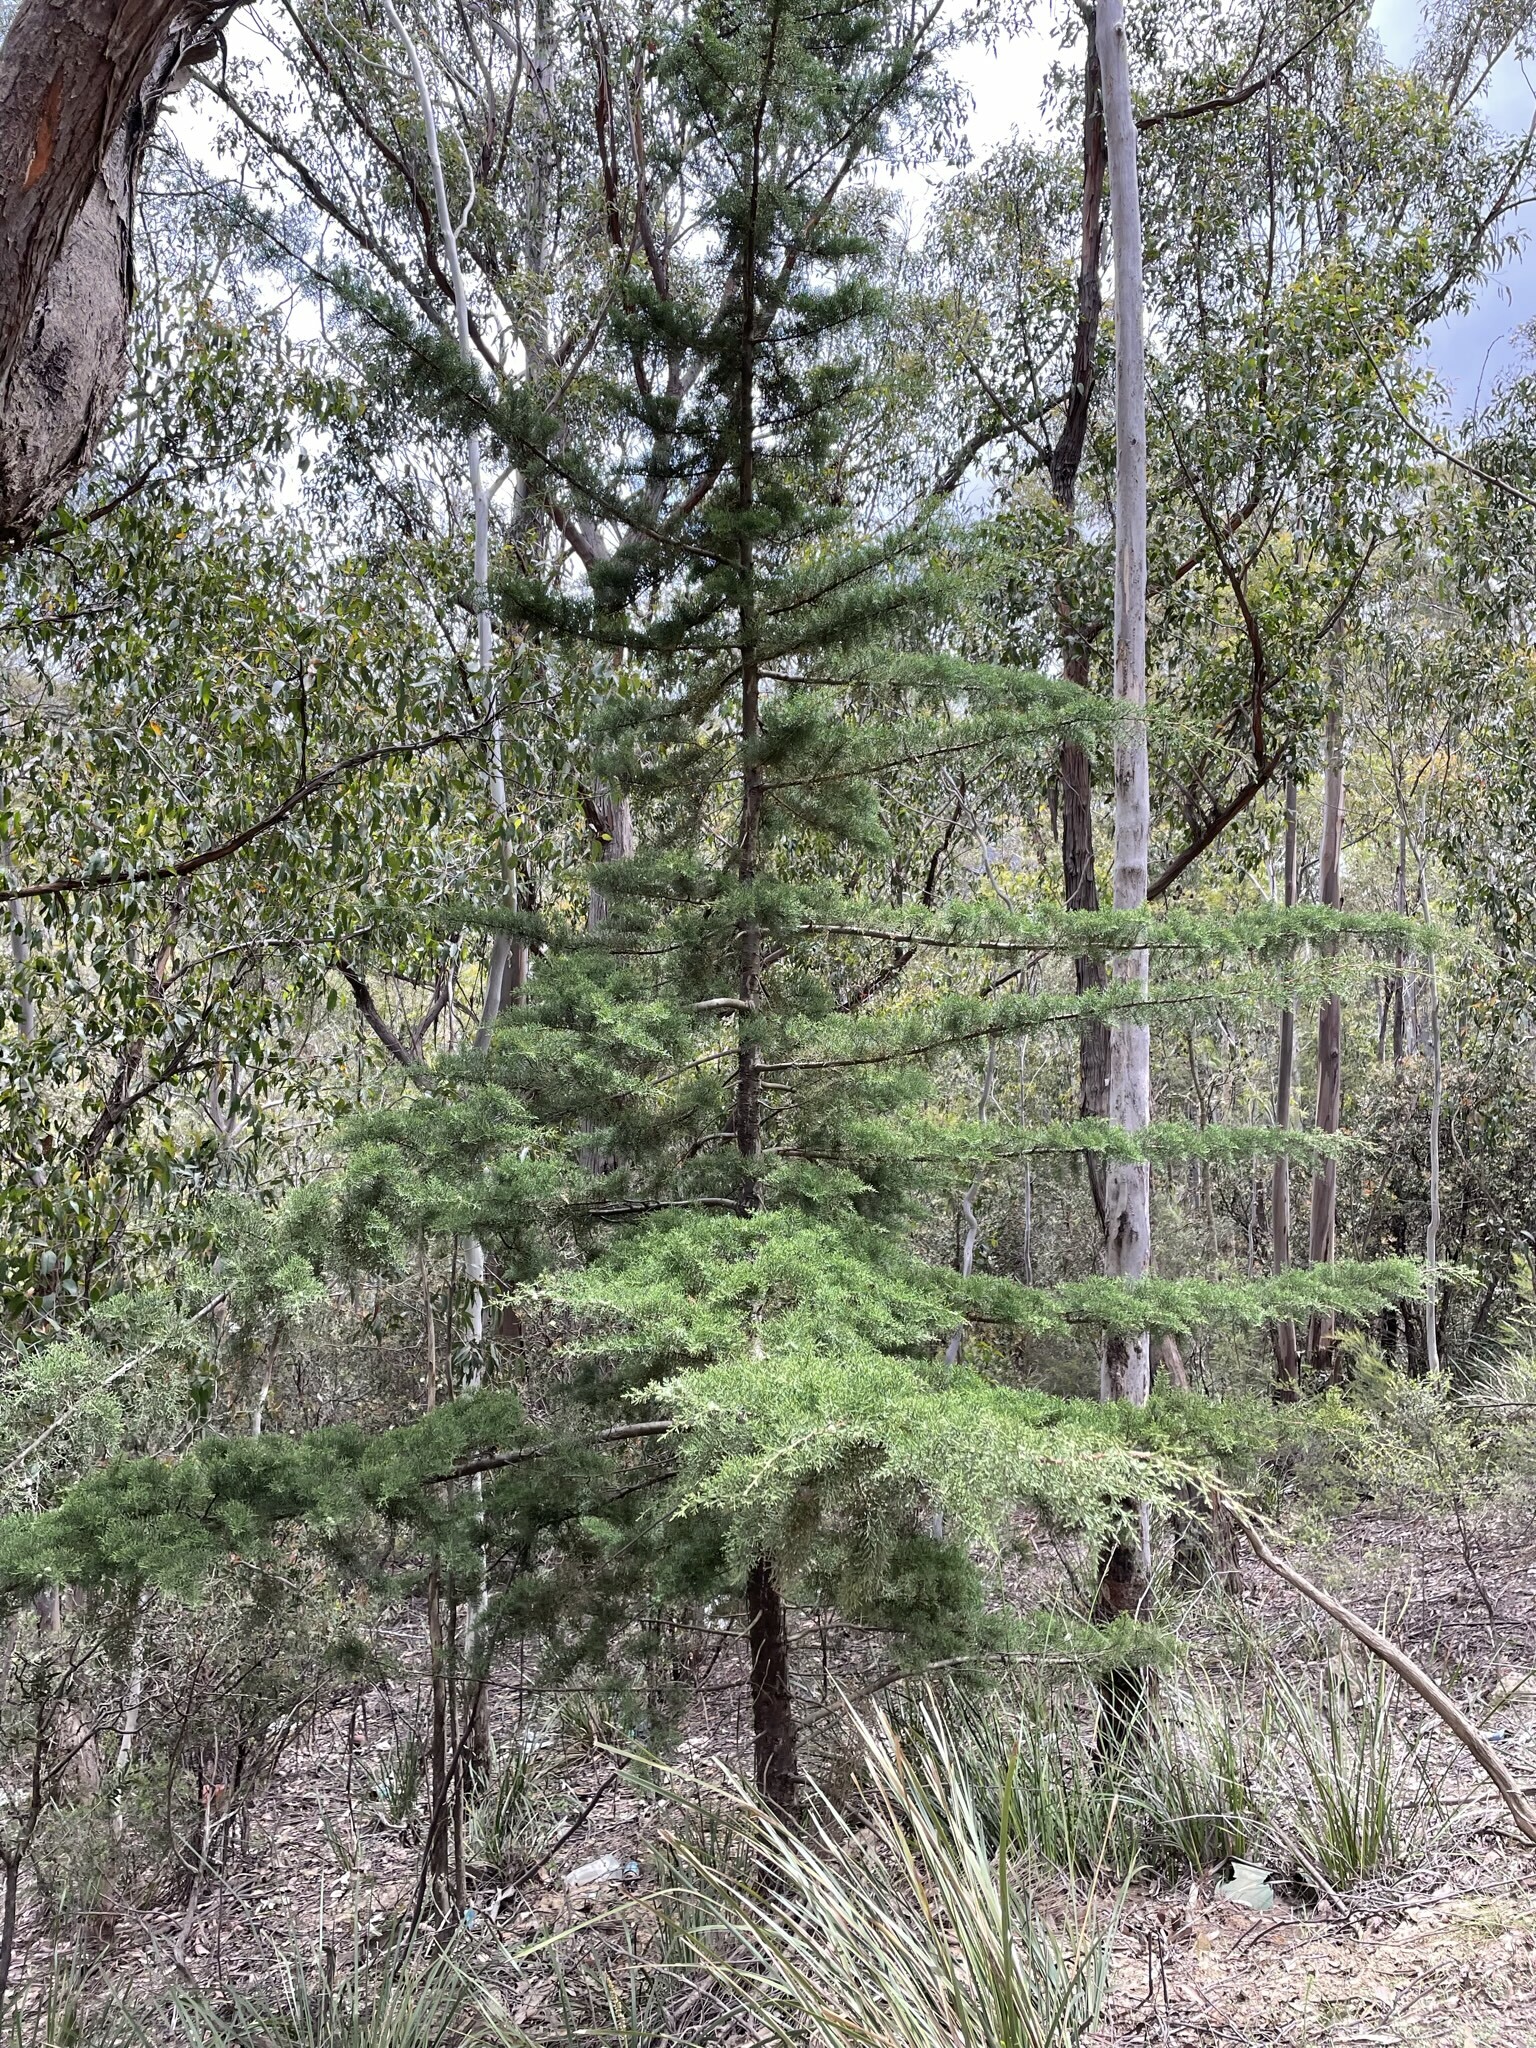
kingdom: Plantae
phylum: Tracheophyta
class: Pinopsida
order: Pinales
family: Cupressaceae
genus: Cupressus
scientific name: Cupressus macrocarpa
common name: Monterey cypress
